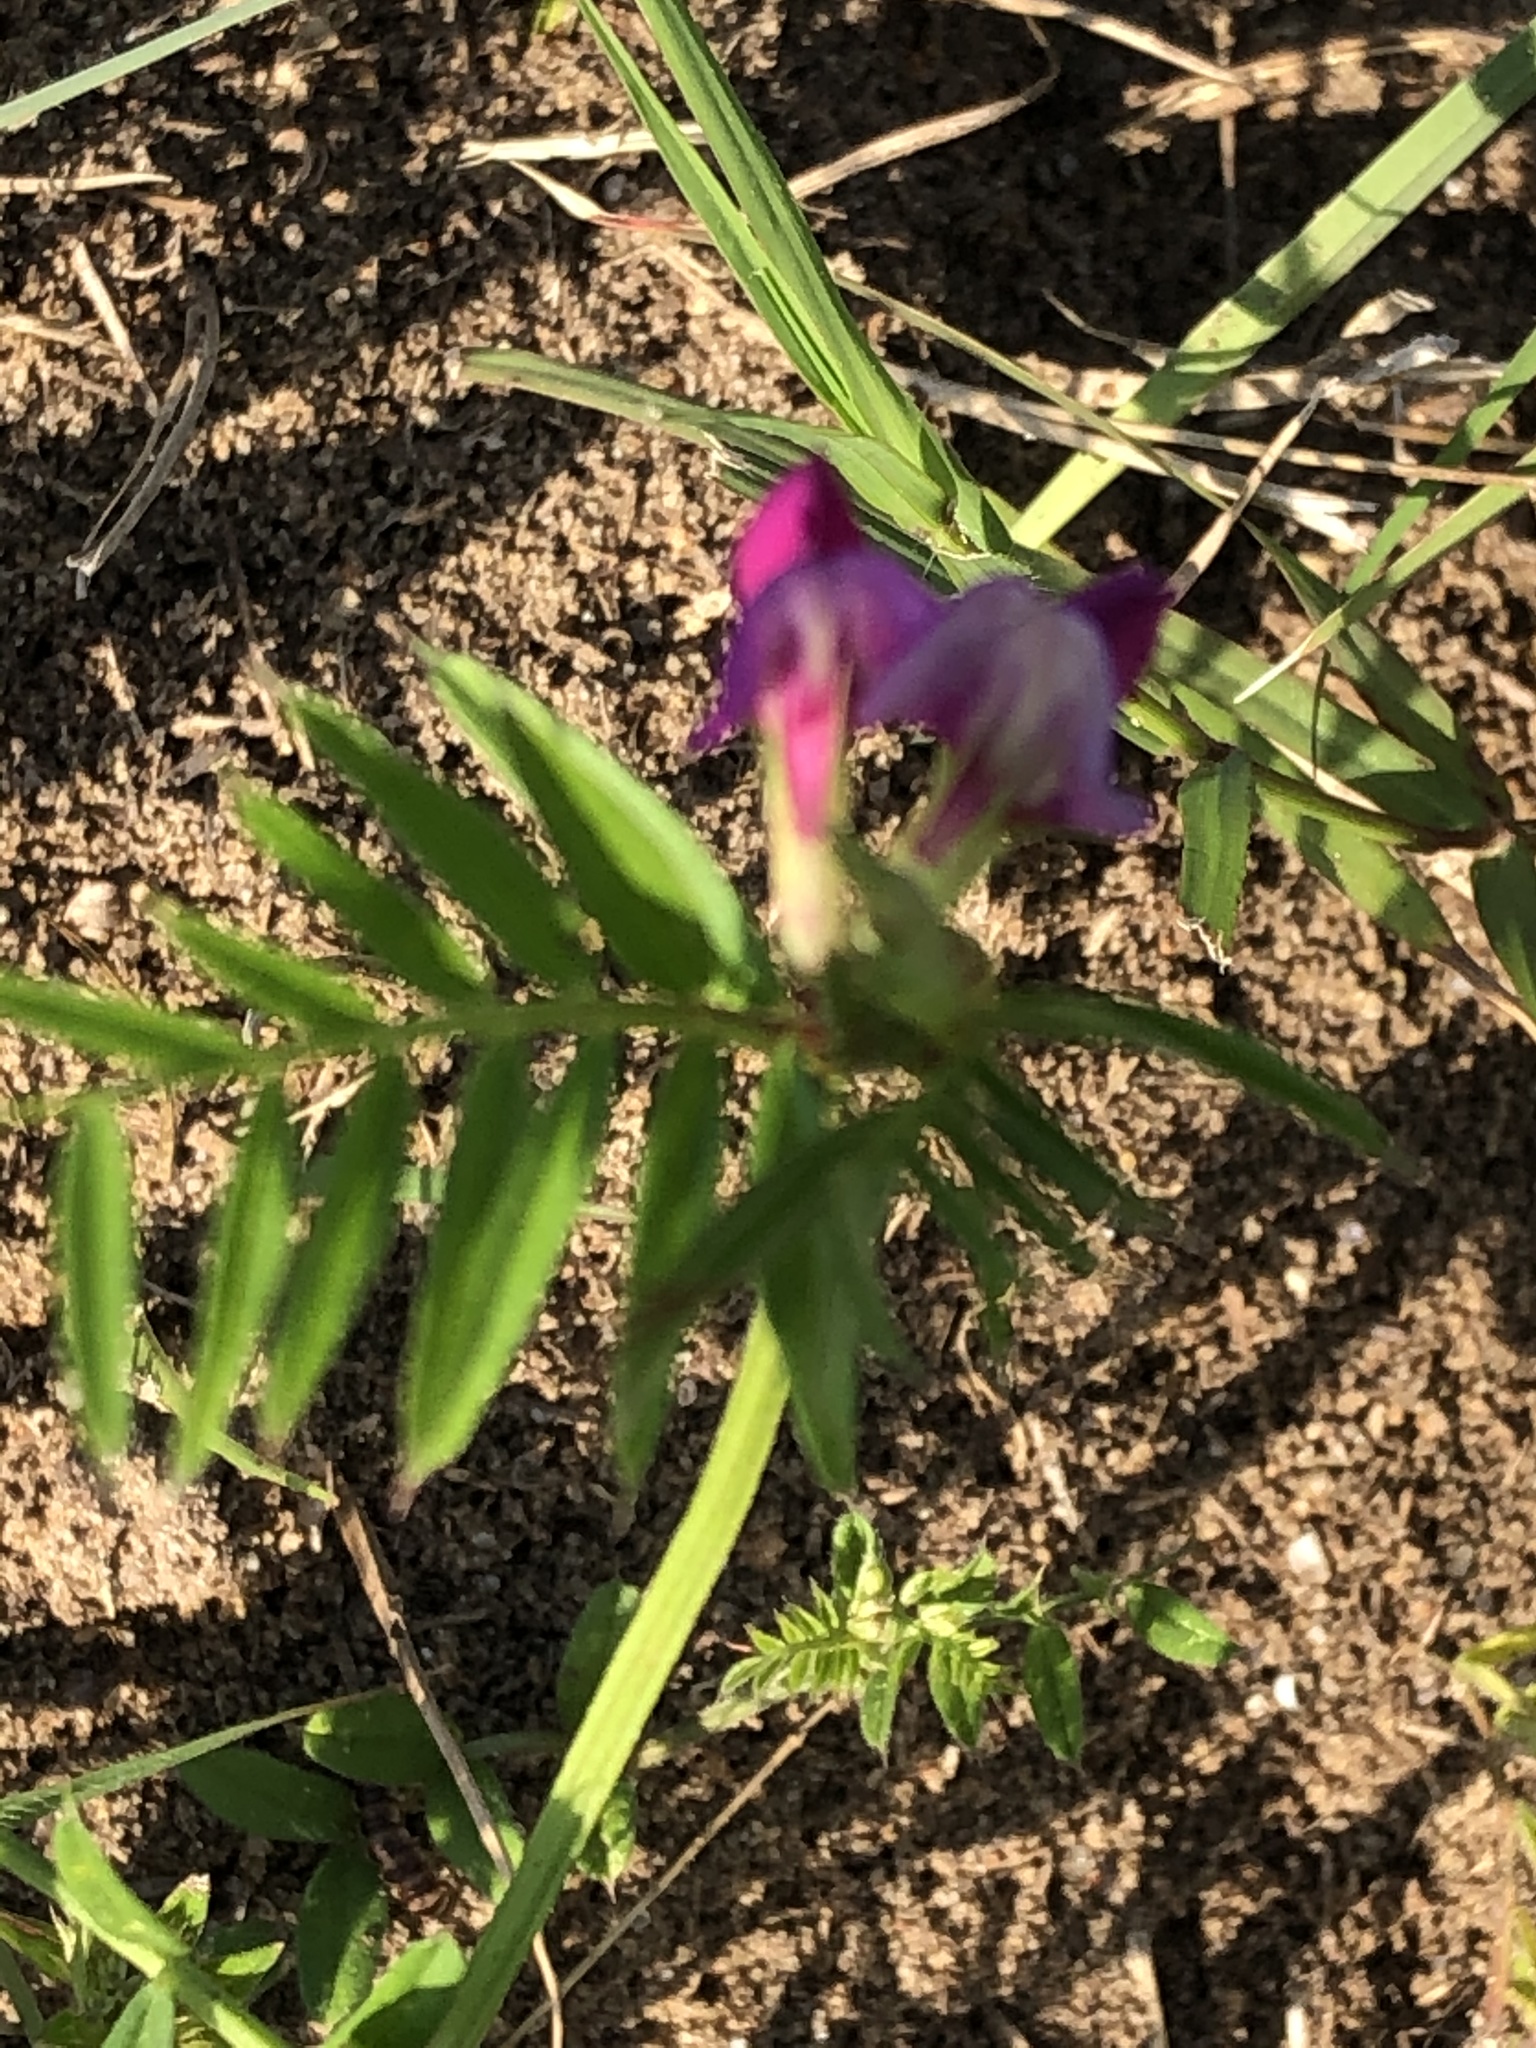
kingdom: Plantae
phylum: Tracheophyta
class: Magnoliopsida
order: Fabales
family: Fabaceae
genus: Vicia
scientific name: Vicia sativa
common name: Garden vetch
